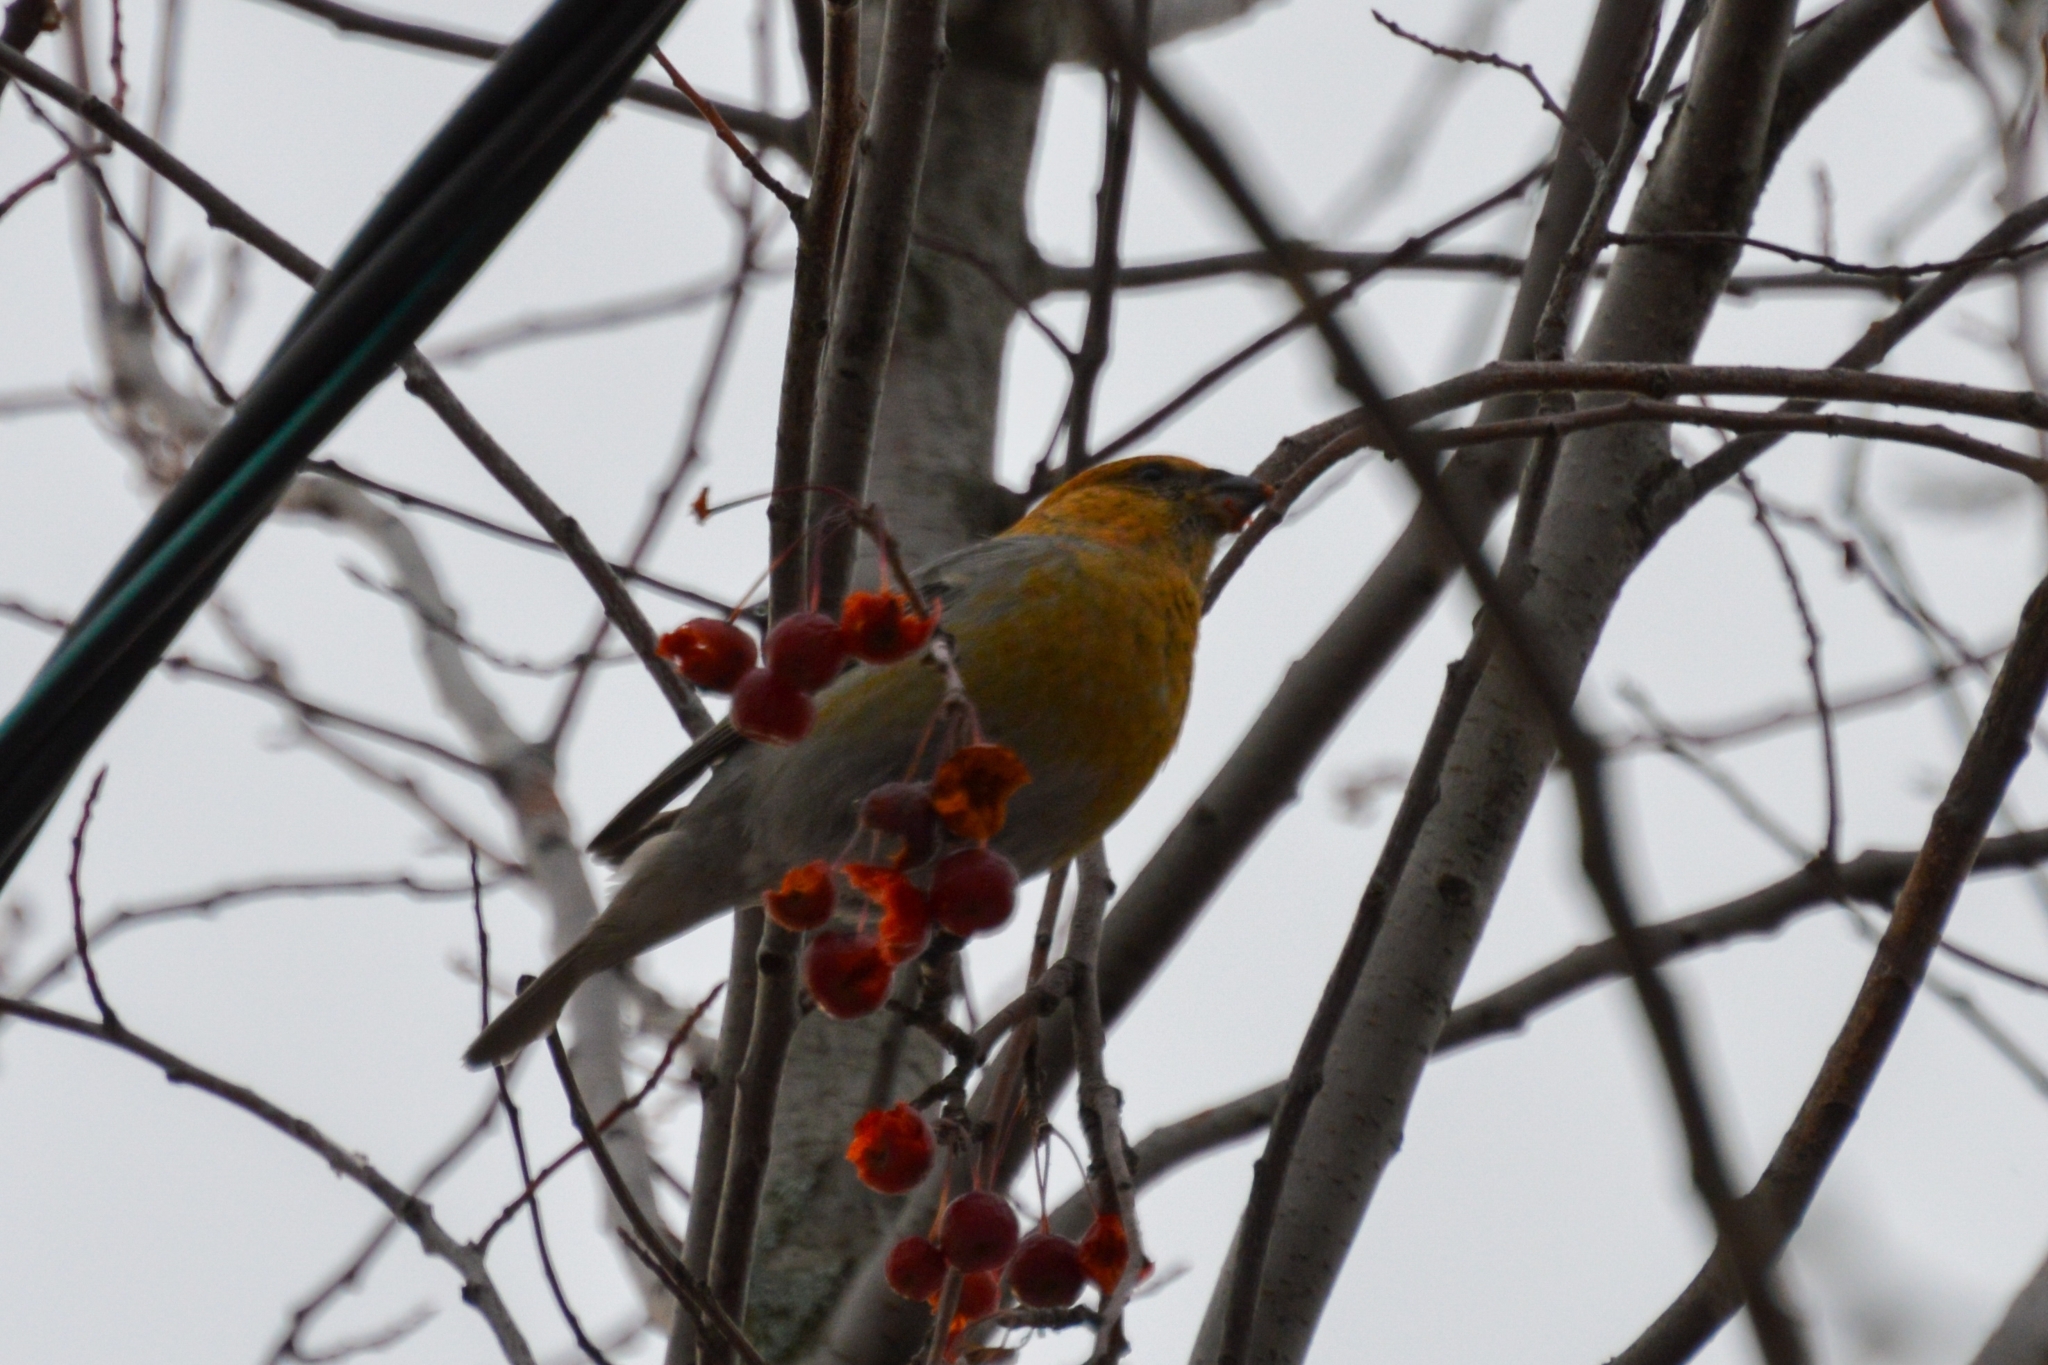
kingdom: Animalia
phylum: Chordata
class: Aves
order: Passeriformes
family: Fringillidae
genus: Pinicola
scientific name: Pinicola enucleator
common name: Pine grosbeak
